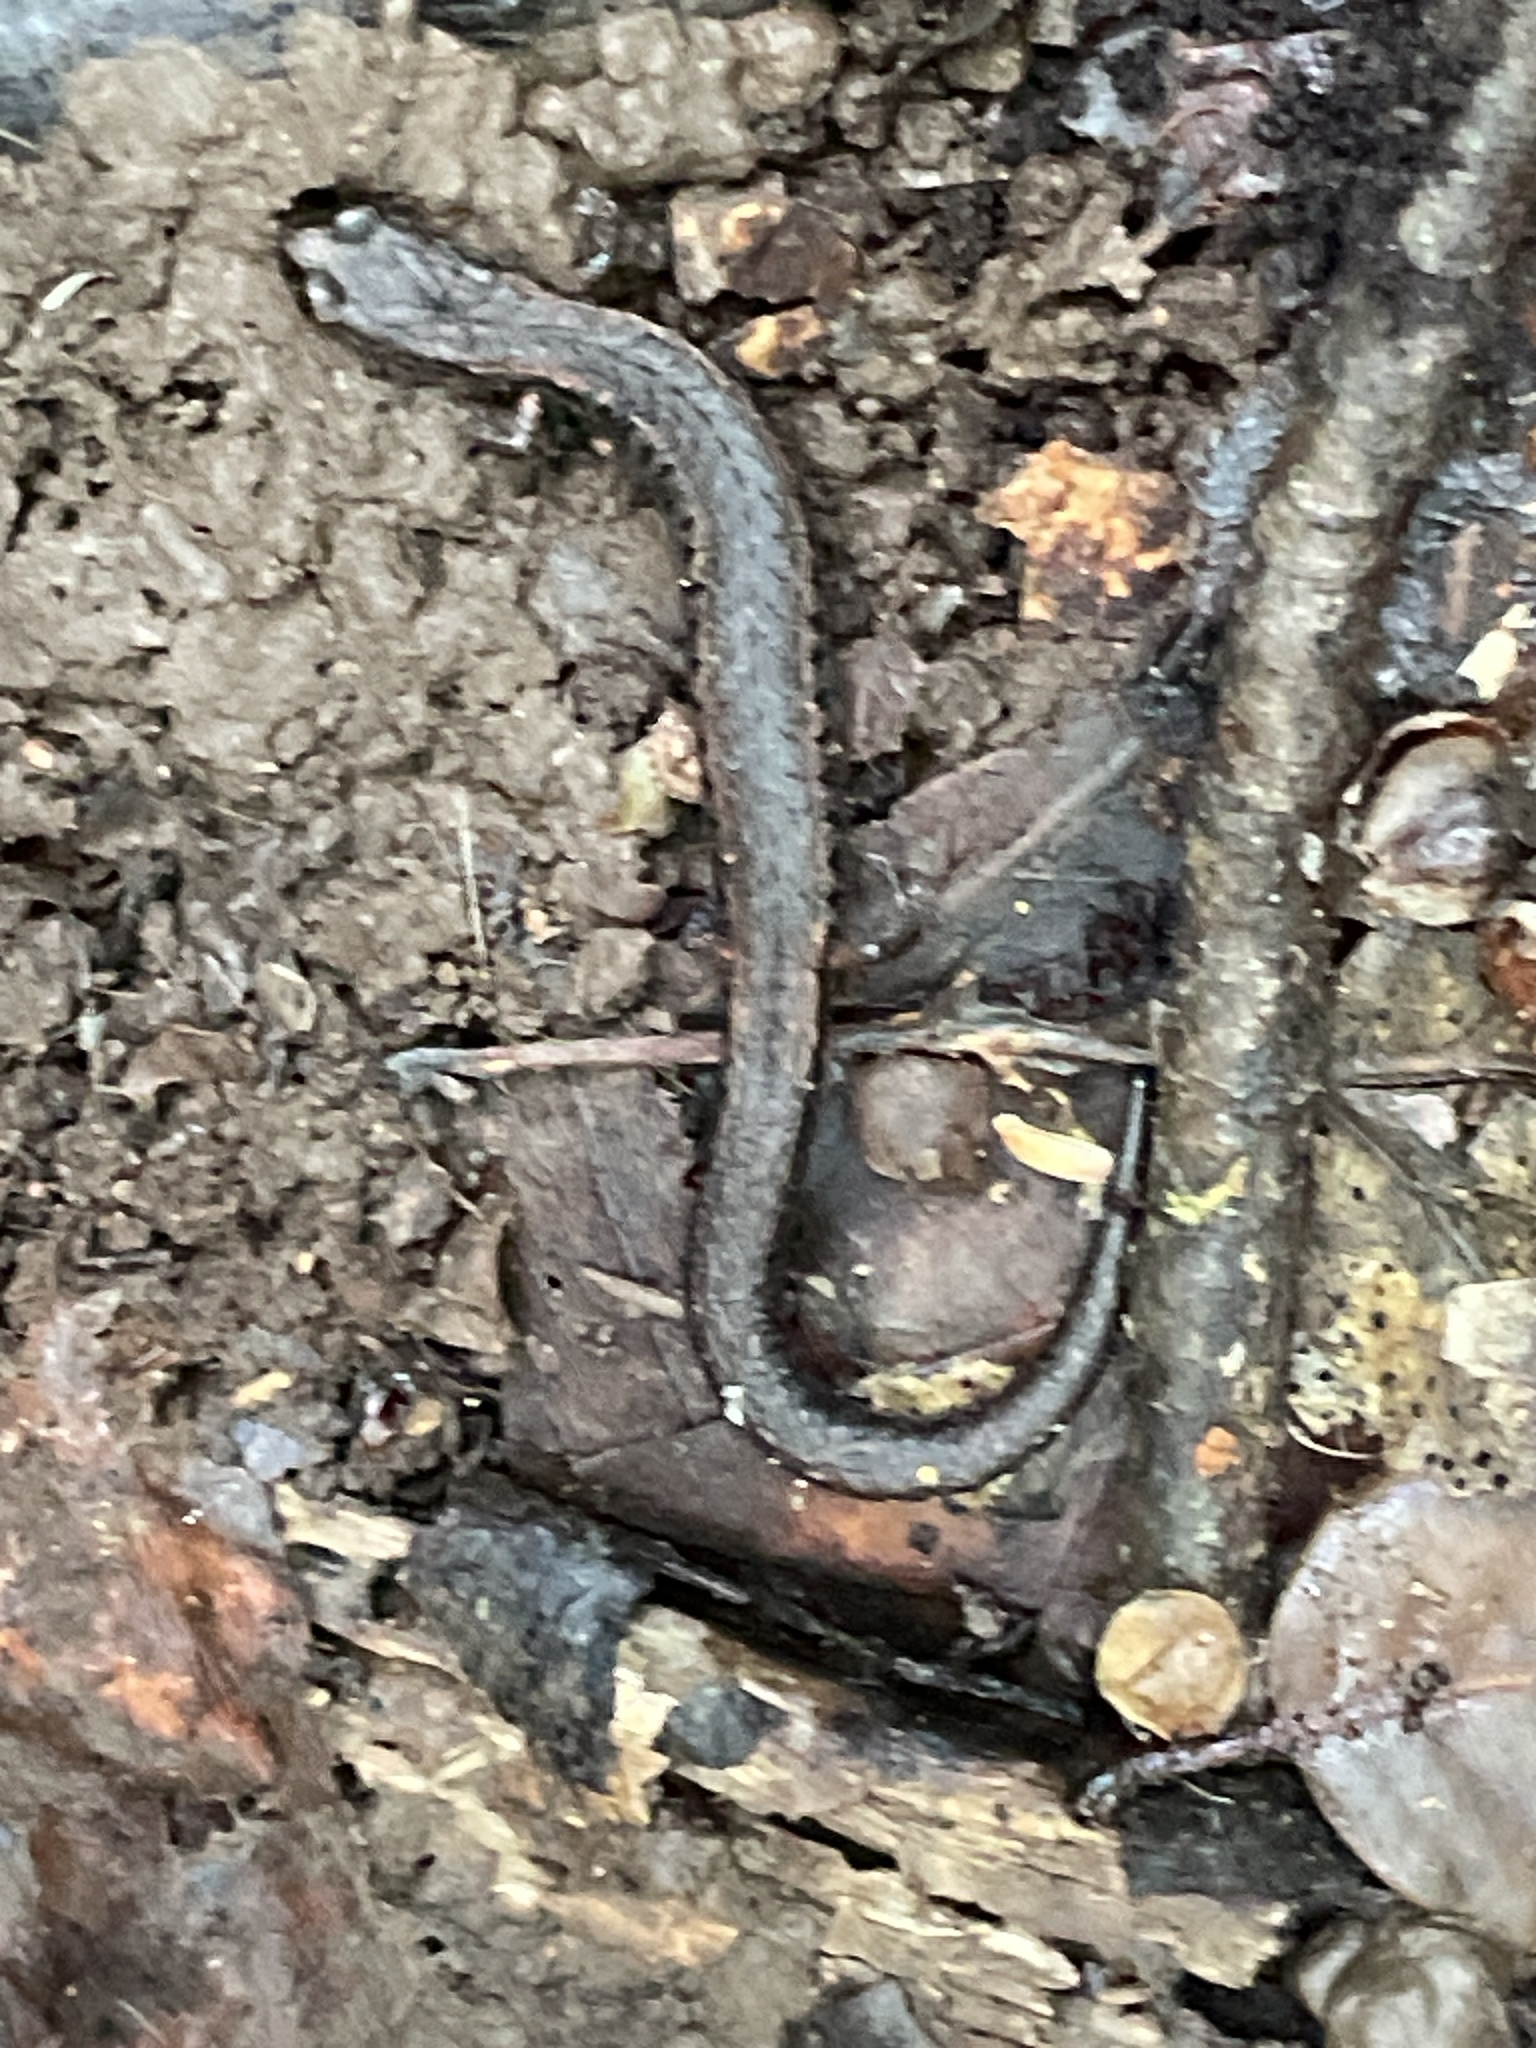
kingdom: Animalia
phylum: Chordata
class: Amphibia
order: Caudata
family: Plethodontidae
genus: Batrachoseps
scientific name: Batrachoseps attenuatus
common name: California slender salamander
